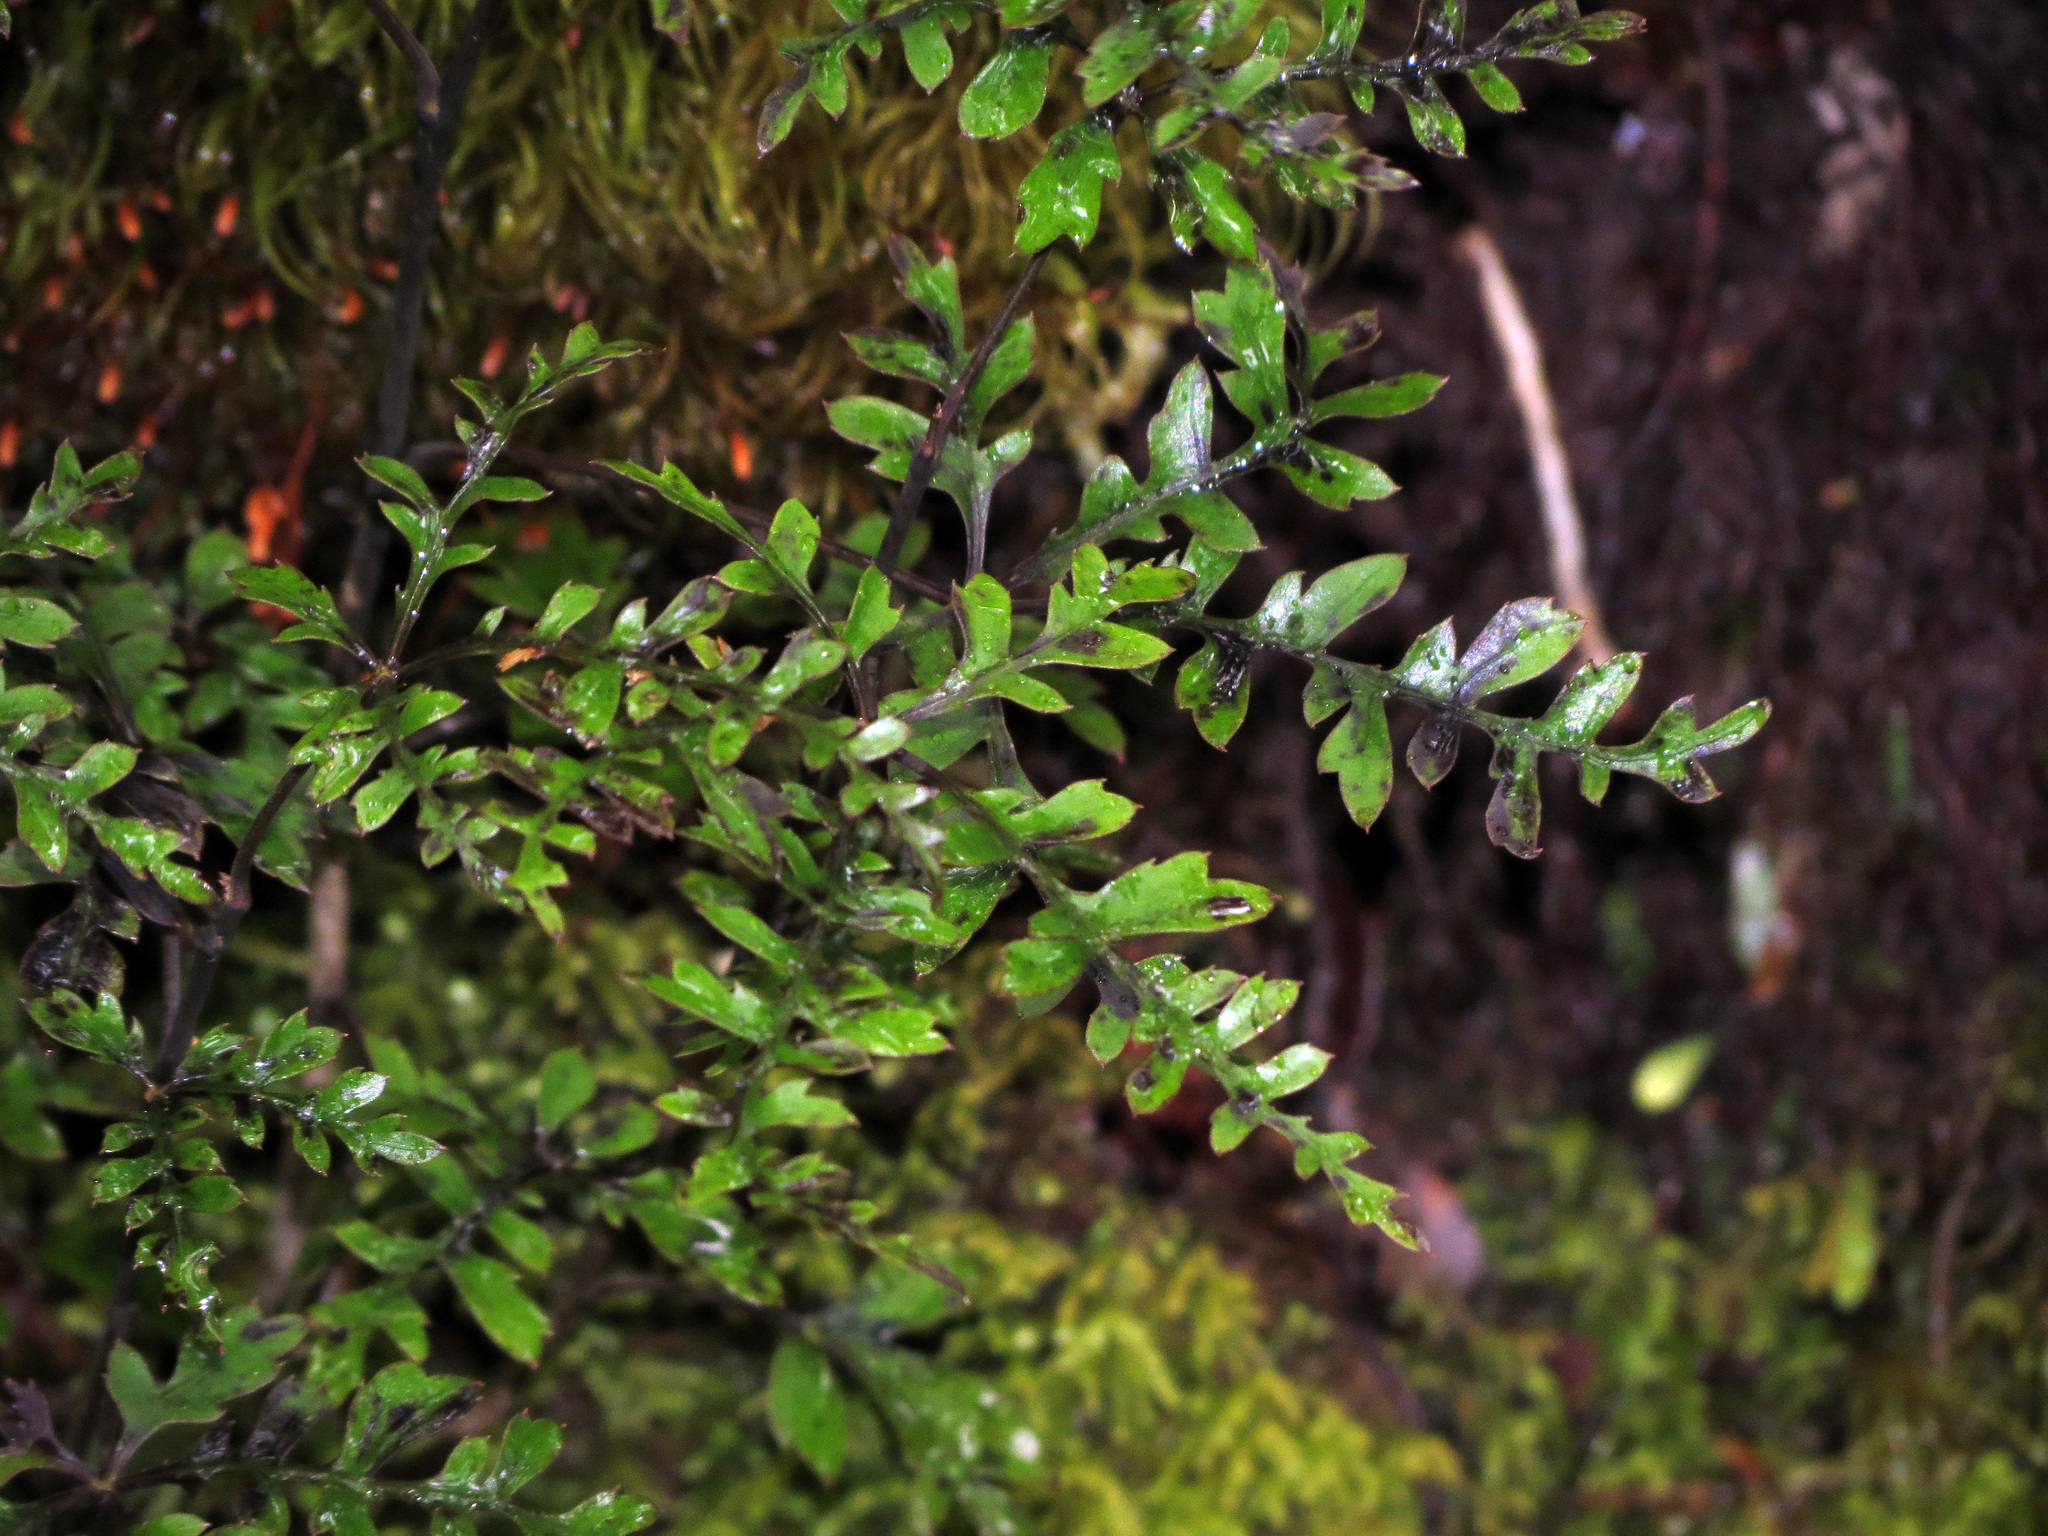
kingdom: Plantae
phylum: Tracheophyta
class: Magnoliopsida
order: Apiales
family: Araliaceae
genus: Raukaua
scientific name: Raukaua simplex
